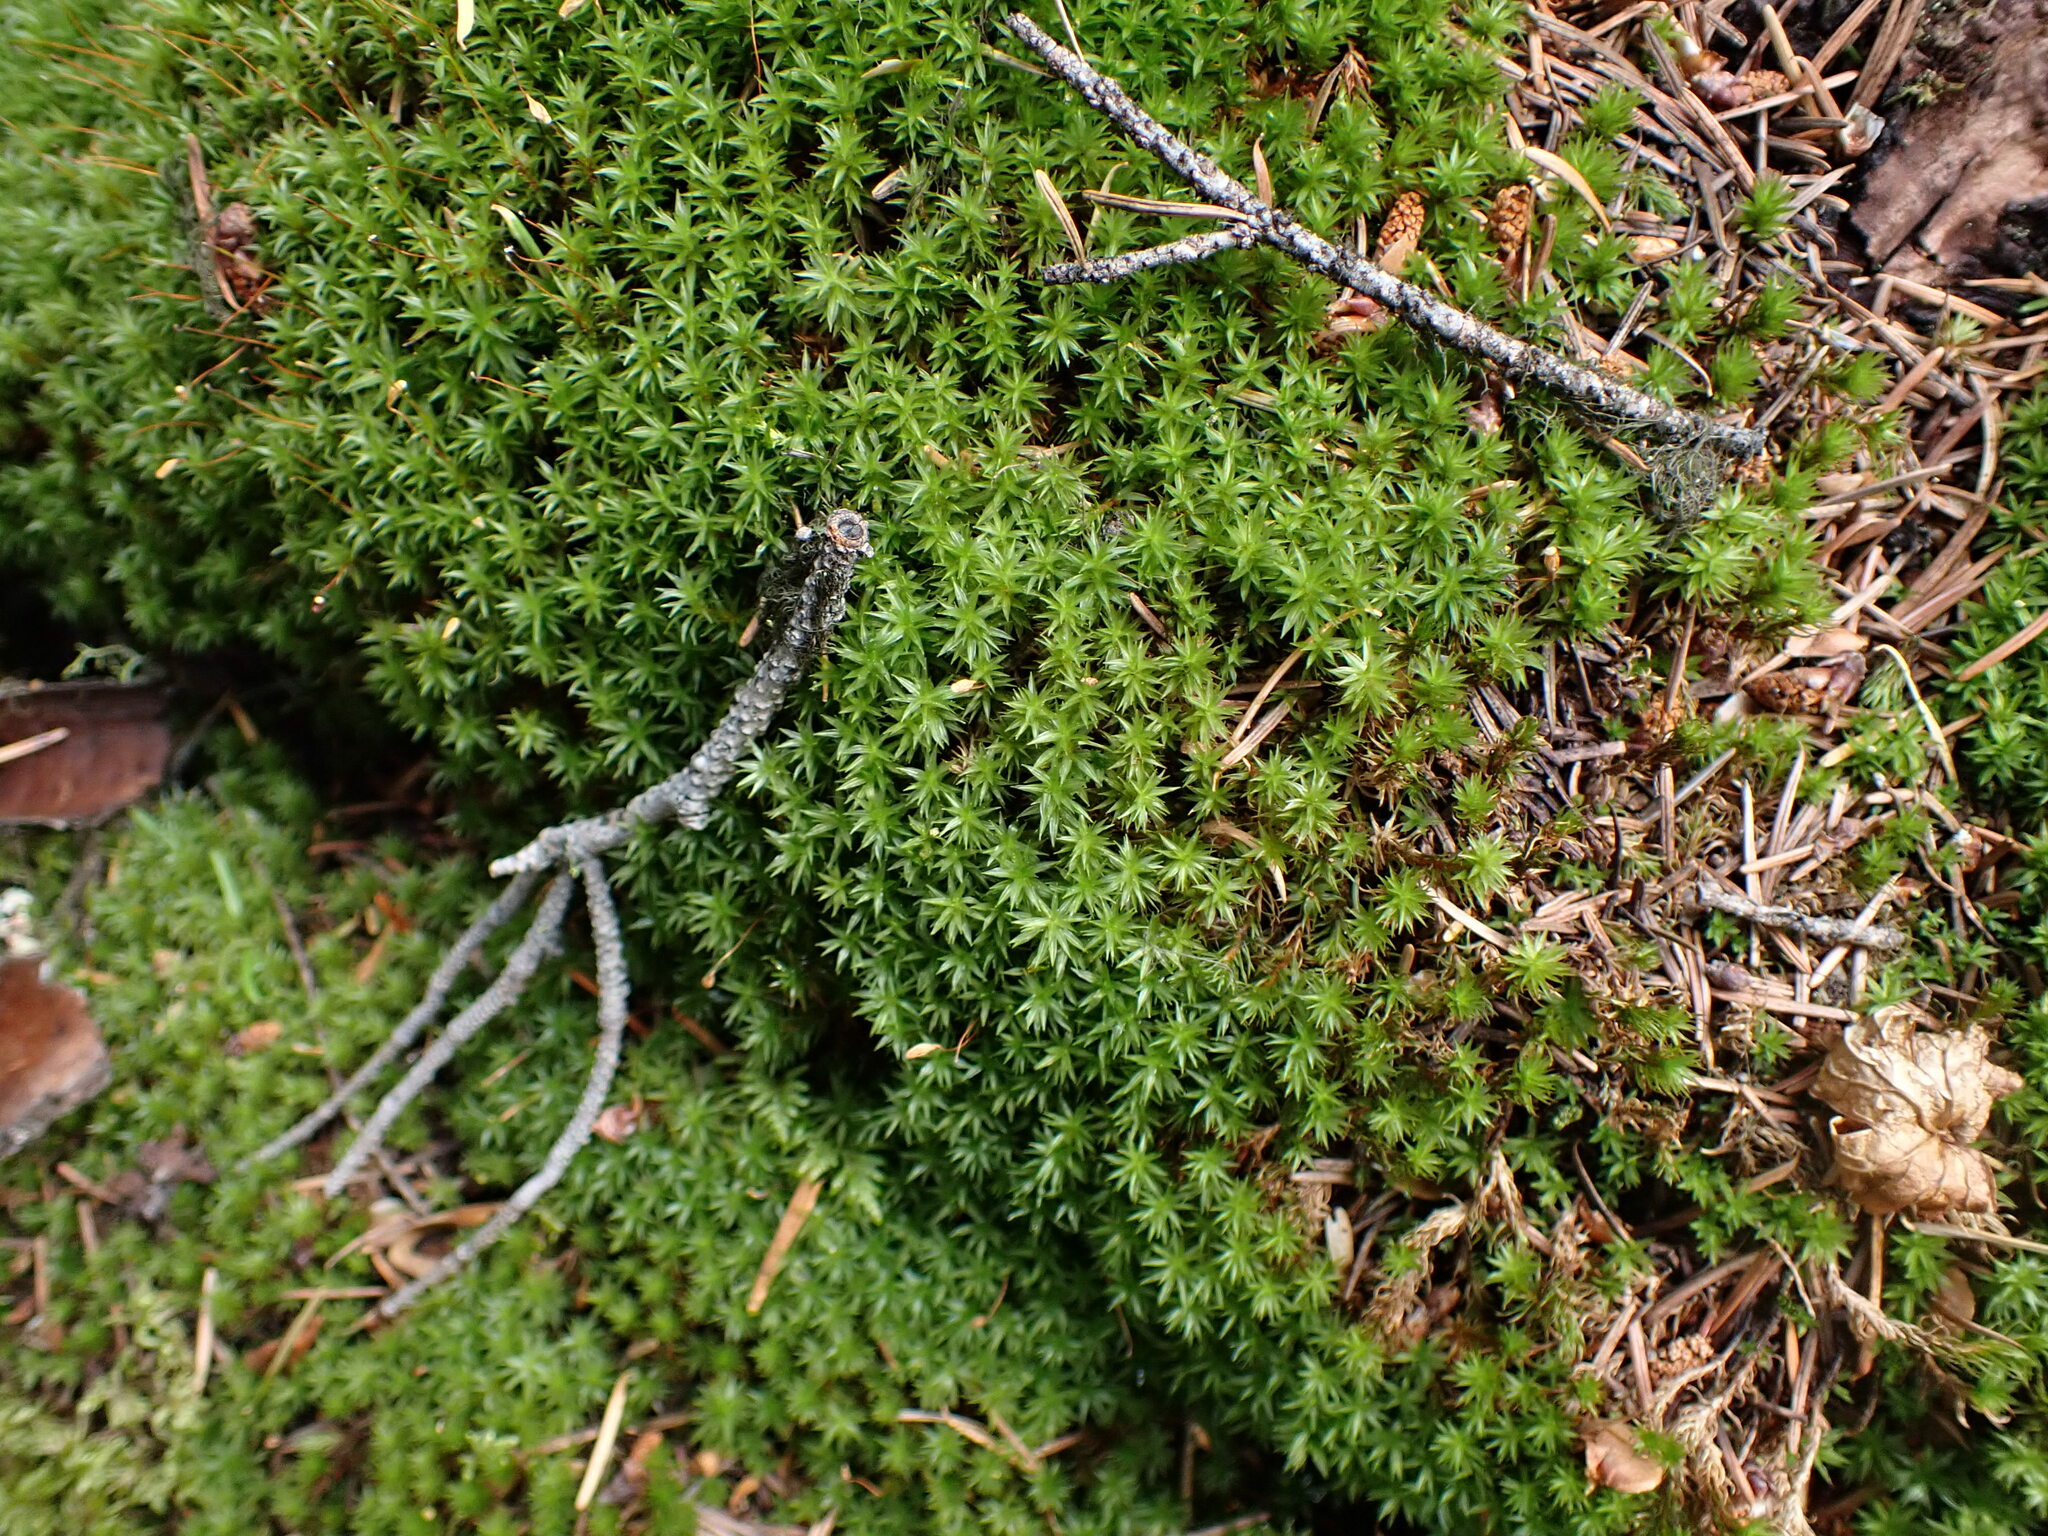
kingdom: Plantae
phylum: Bryophyta
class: Bryopsida
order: Timmiales
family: Timmiaceae
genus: Timmia
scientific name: Timmia austriaca
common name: Austrian timmia
